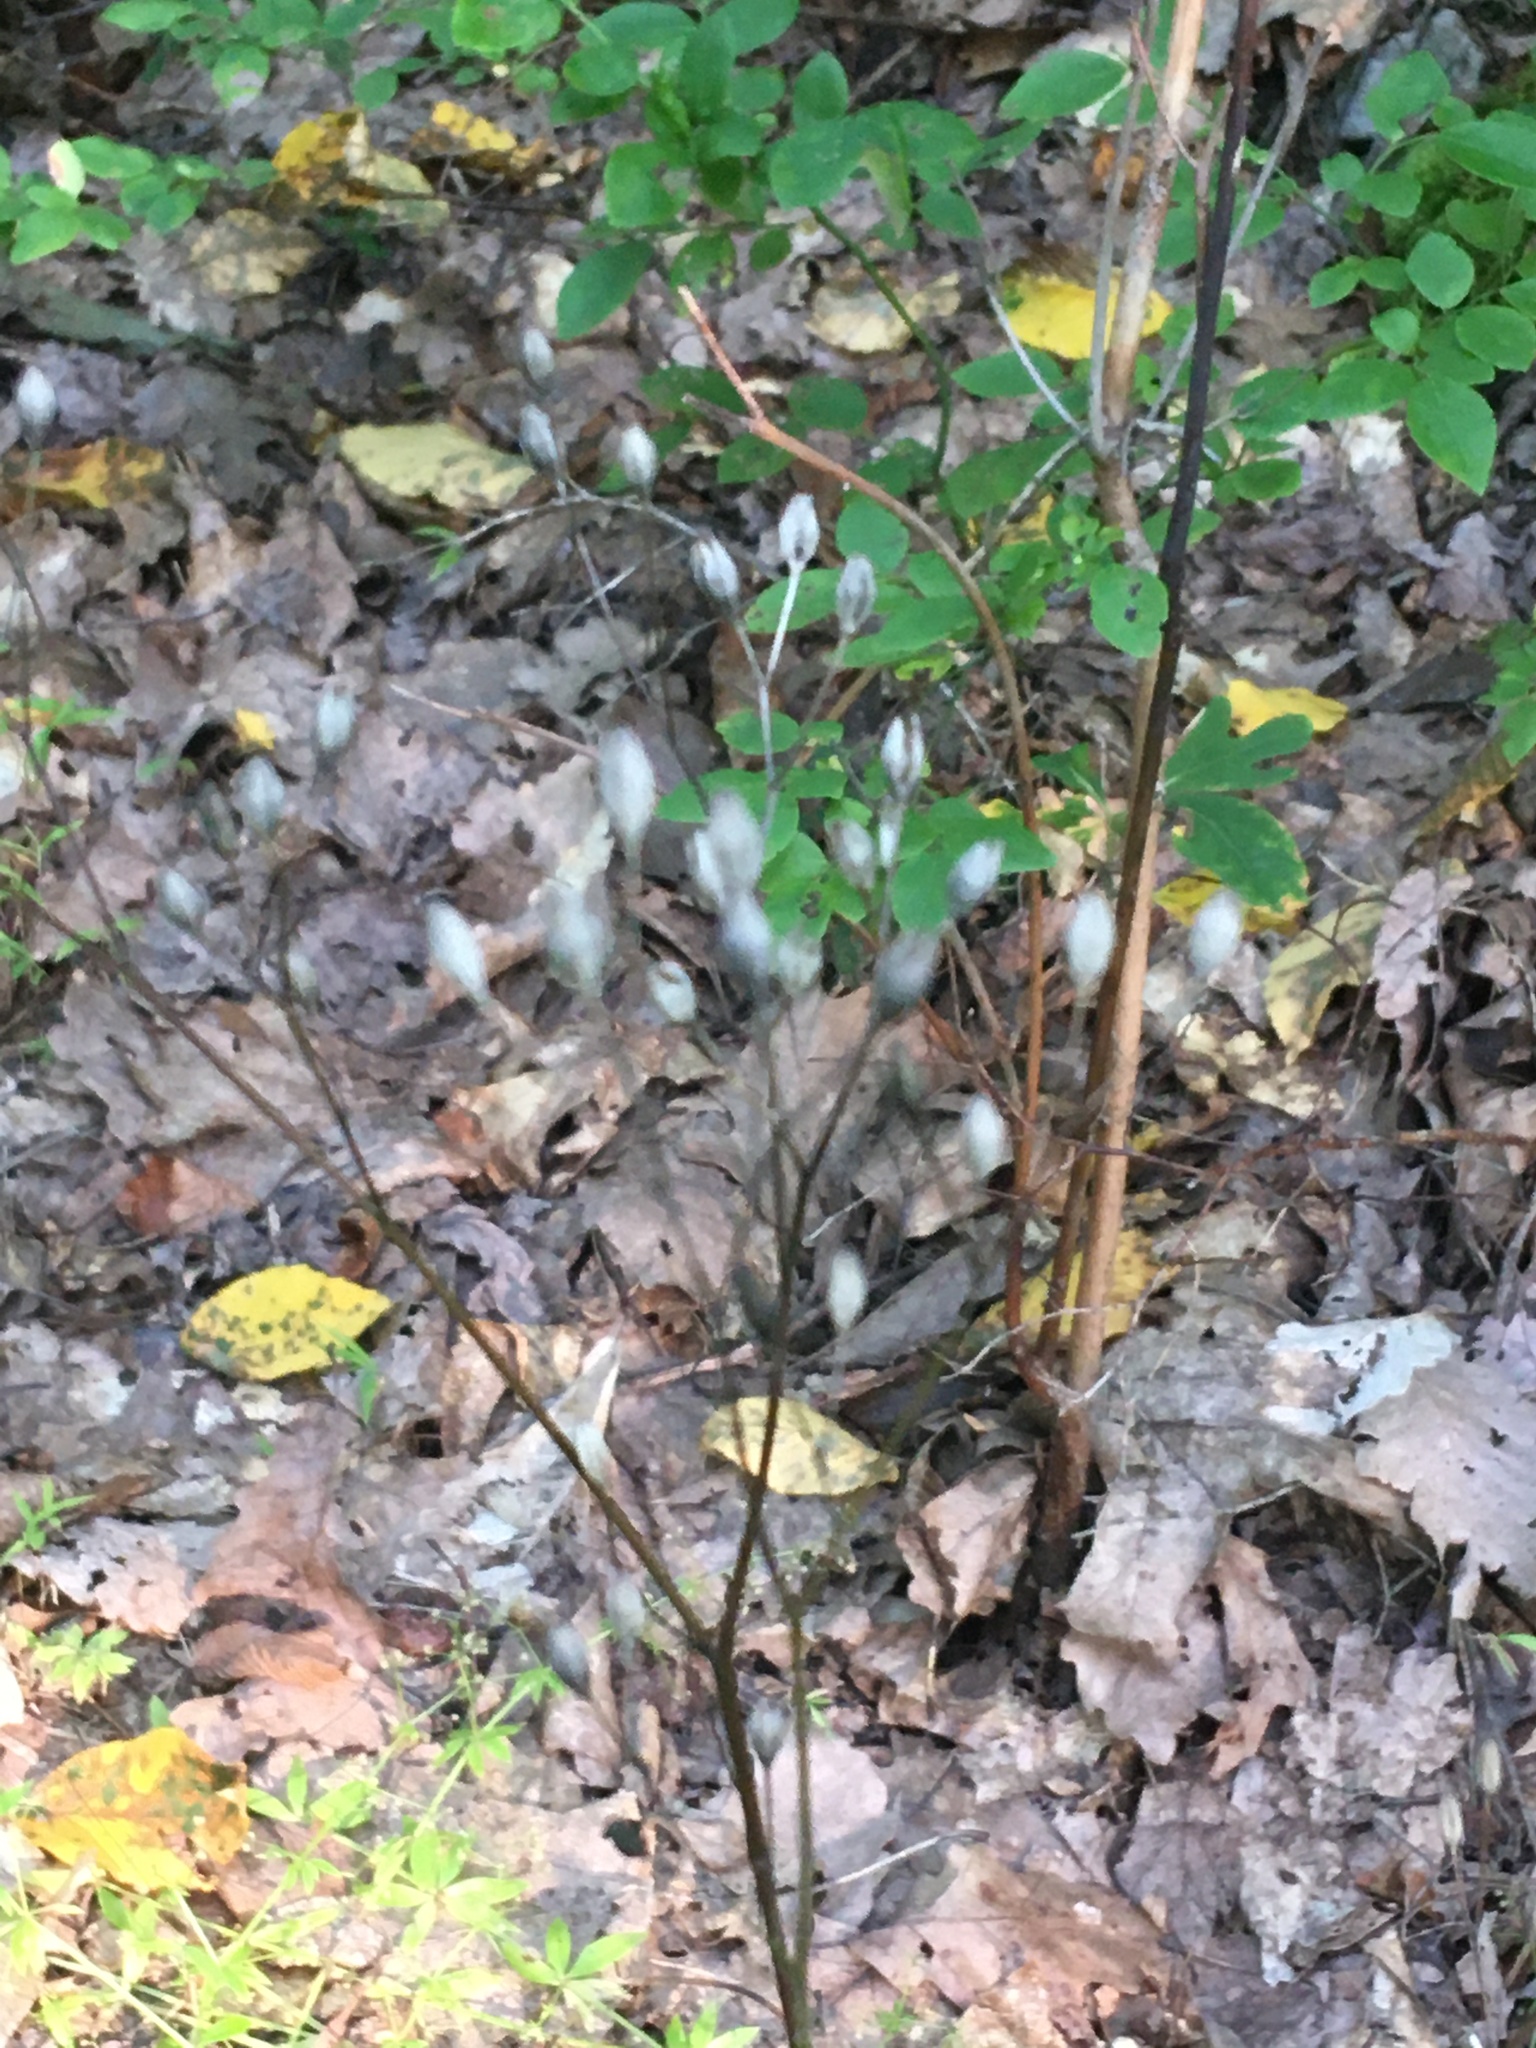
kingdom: Plantae
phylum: Tracheophyta
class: Magnoliopsida
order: Asterales
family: Asteraceae
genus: Lapsana
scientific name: Lapsana communis
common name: Nipplewort
